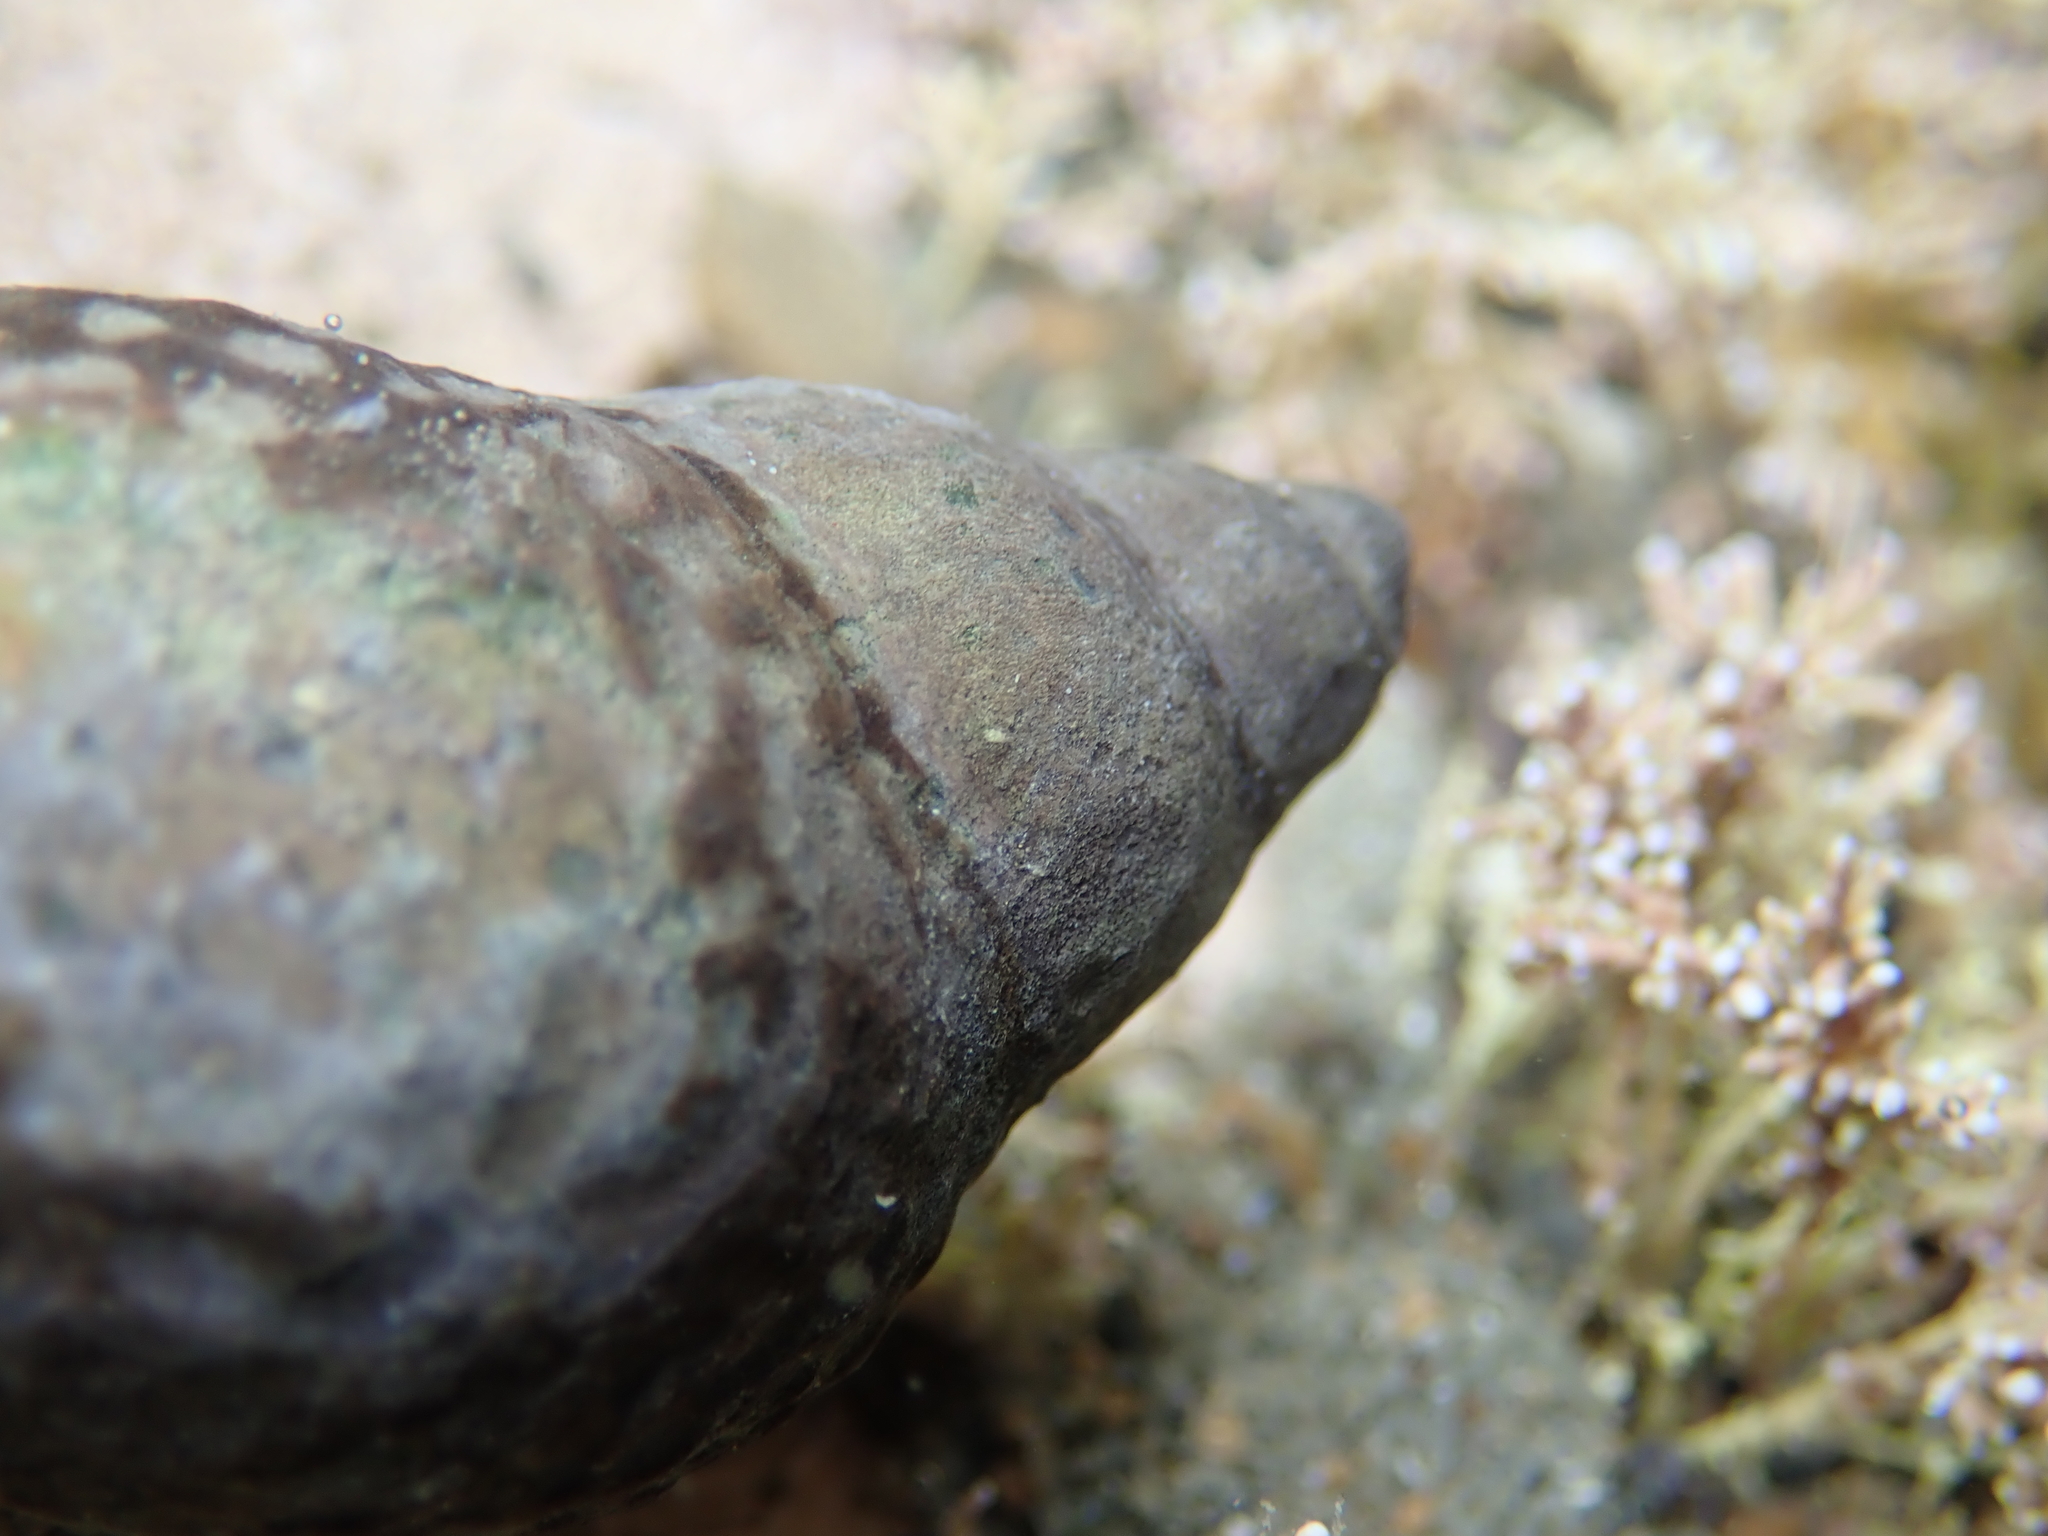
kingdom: Animalia
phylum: Mollusca
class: Gastropoda
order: Neogastropoda
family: Cominellidae
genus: Cominella
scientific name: Cominella maculosa
